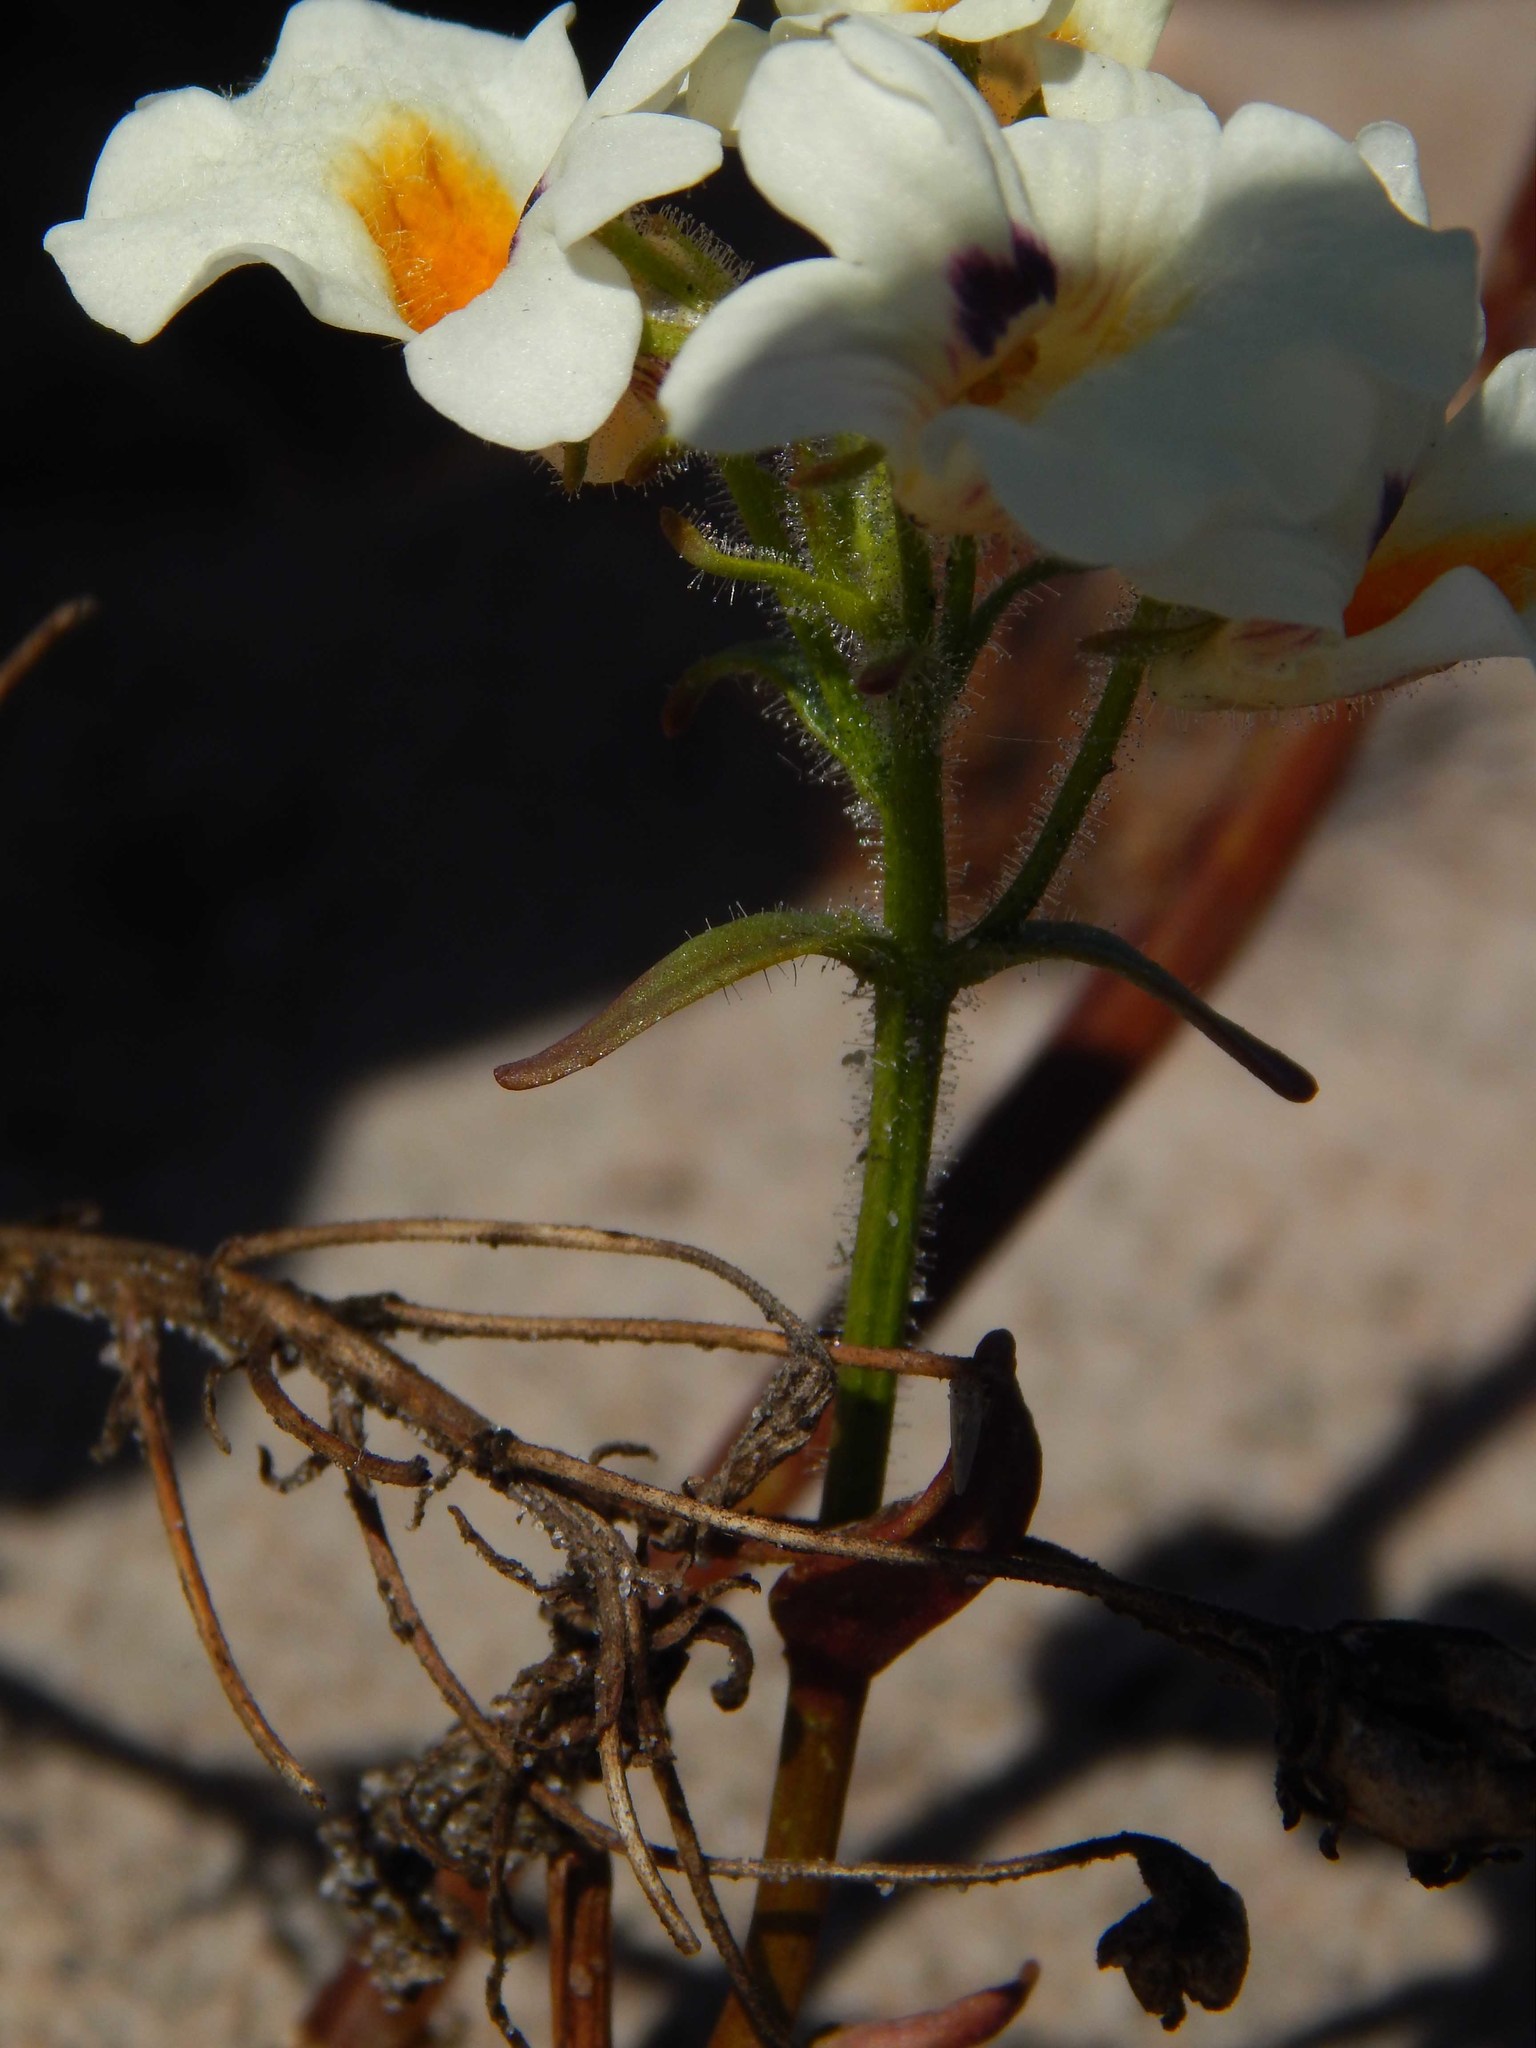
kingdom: Plantae
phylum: Tracheophyta
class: Magnoliopsida
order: Lamiales
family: Scrophulariaceae
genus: Nemesia
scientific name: Nemesia strumosa
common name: Cape-jewels
